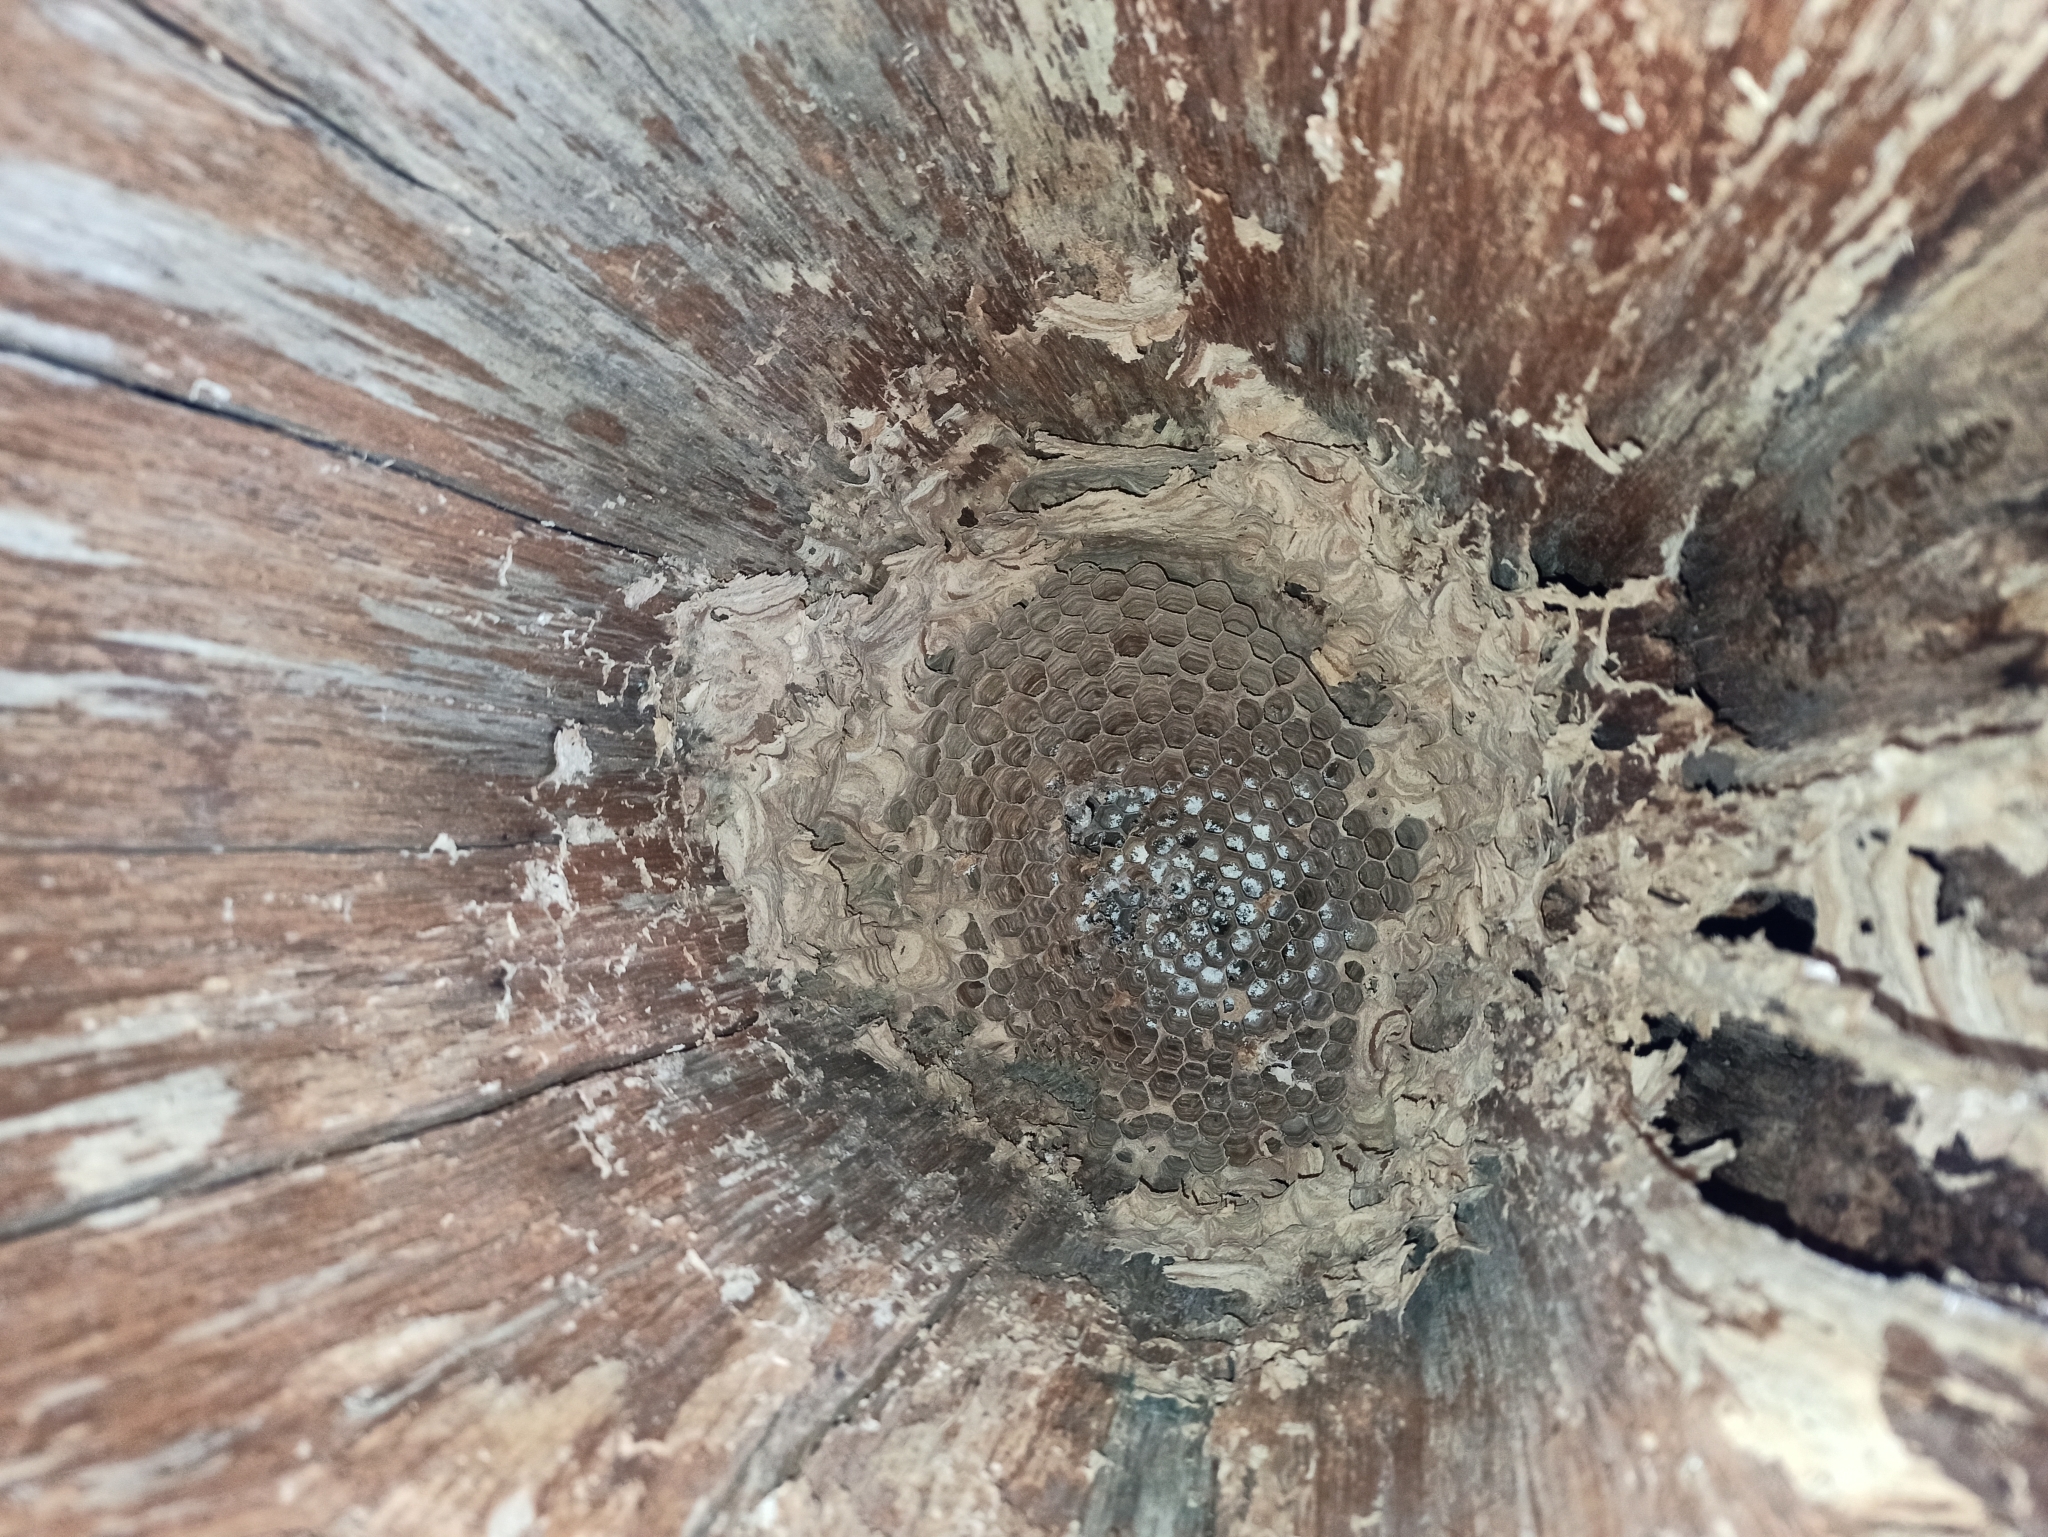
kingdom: Animalia
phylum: Arthropoda
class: Insecta
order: Hymenoptera
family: Vespidae
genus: Vespa
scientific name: Vespa crabro
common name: Hornet
